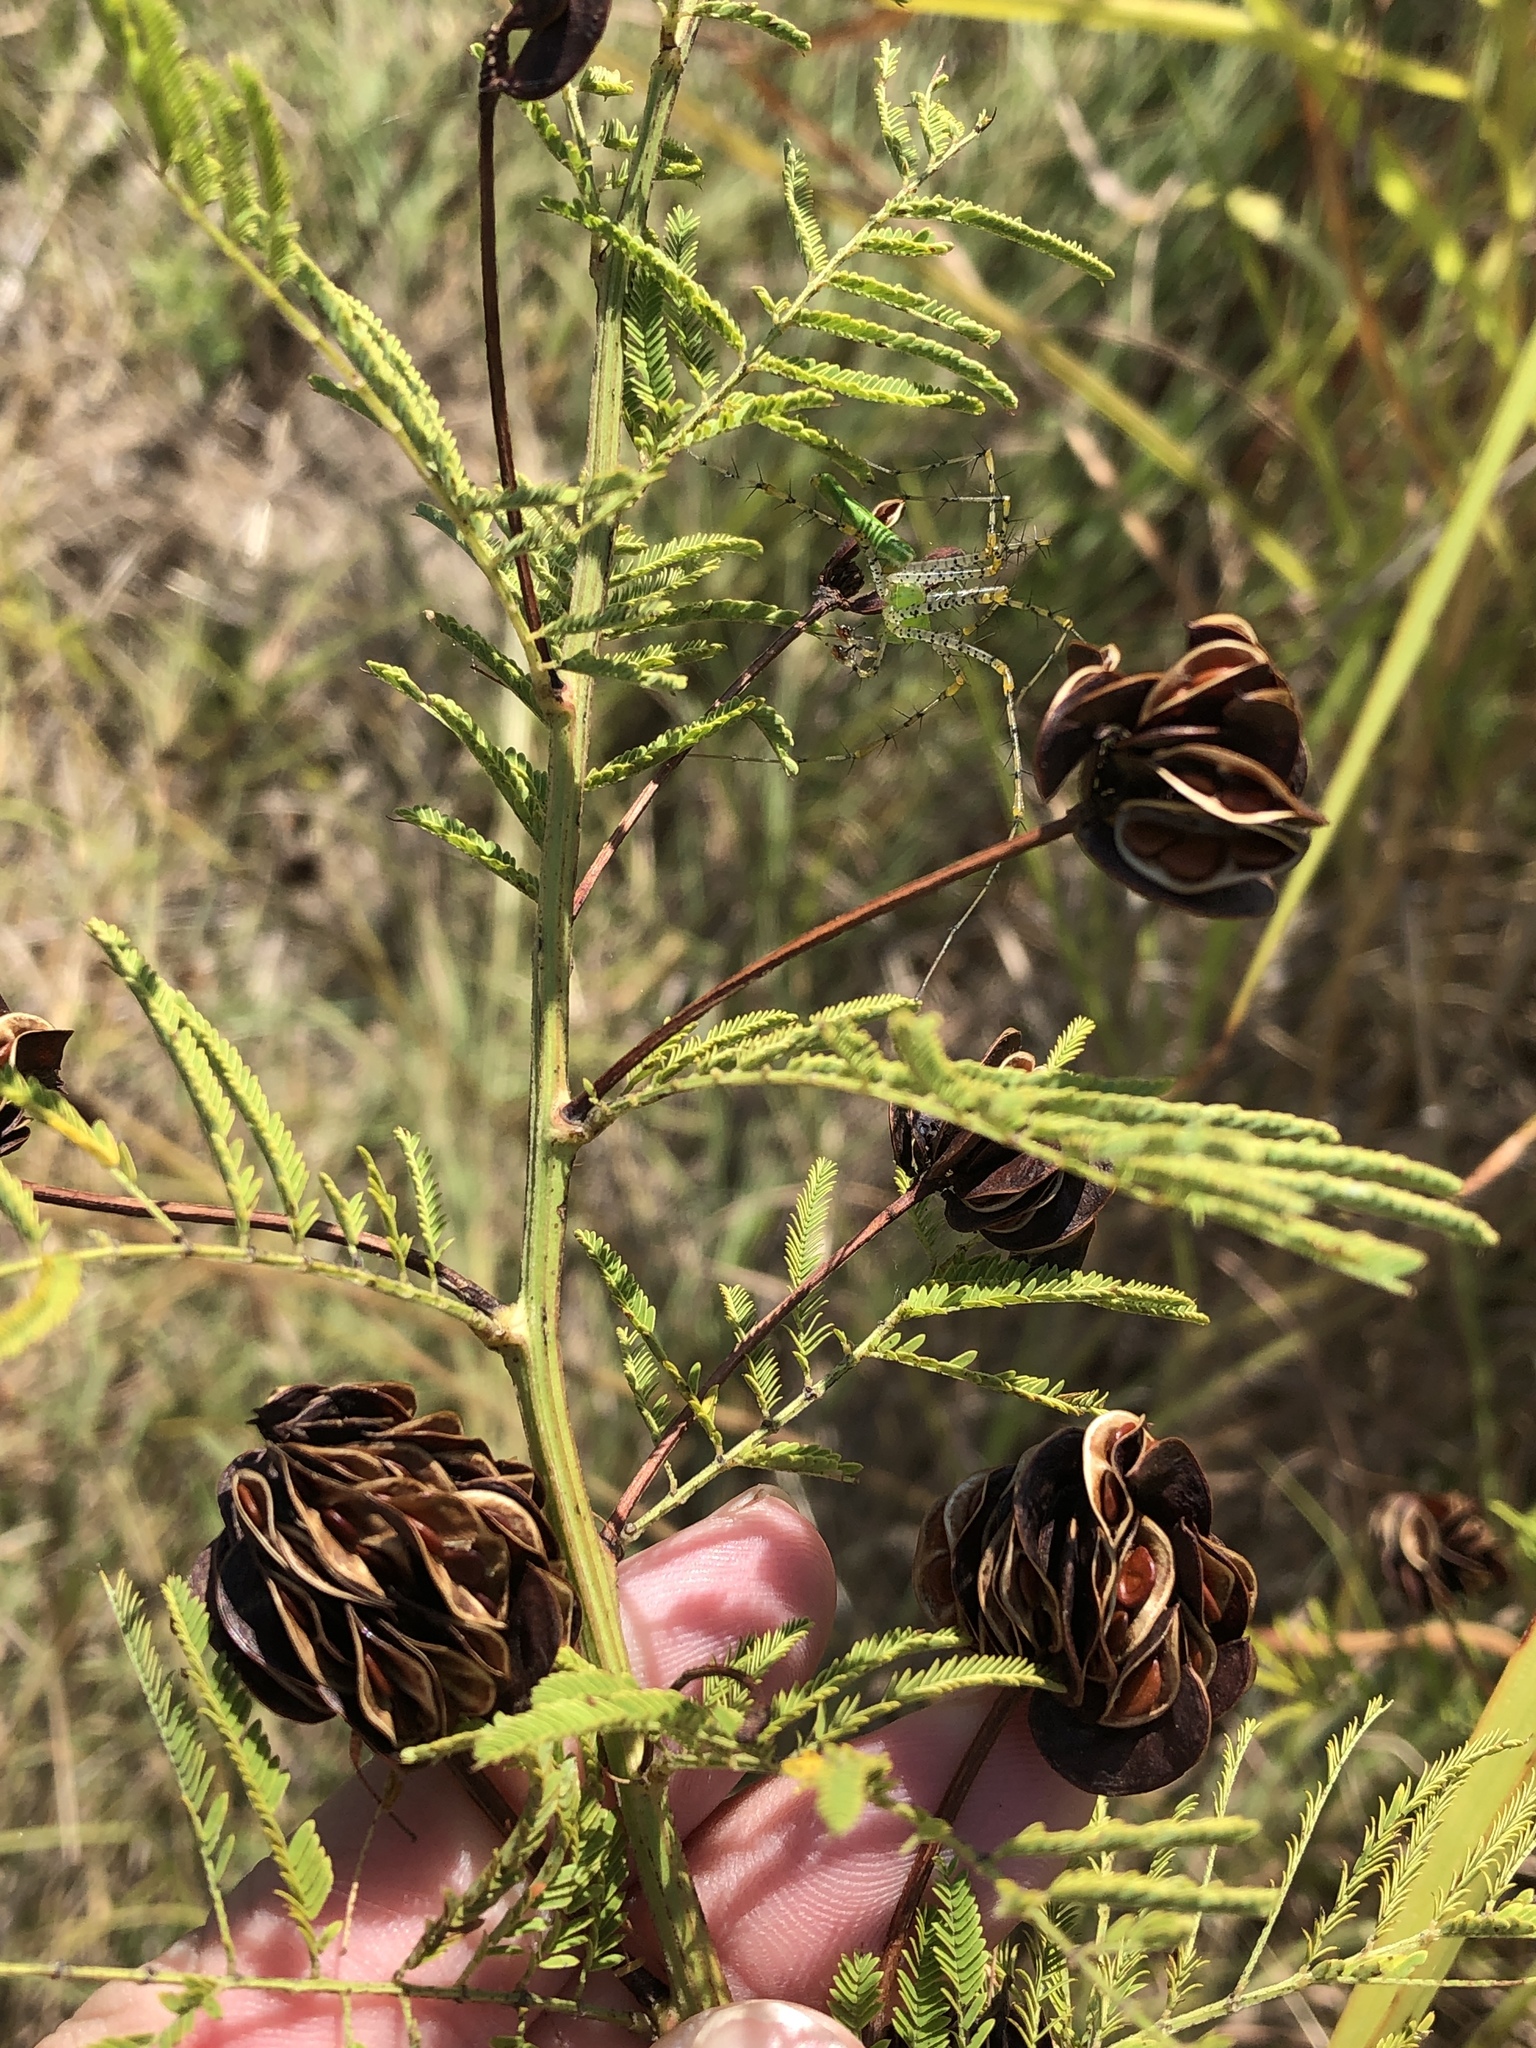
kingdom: Plantae
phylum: Tracheophyta
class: Magnoliopsida
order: Fabales
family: Fabaceae
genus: Desmanthus
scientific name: Desmanthus illinoensis
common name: Illinois bundle-flower
